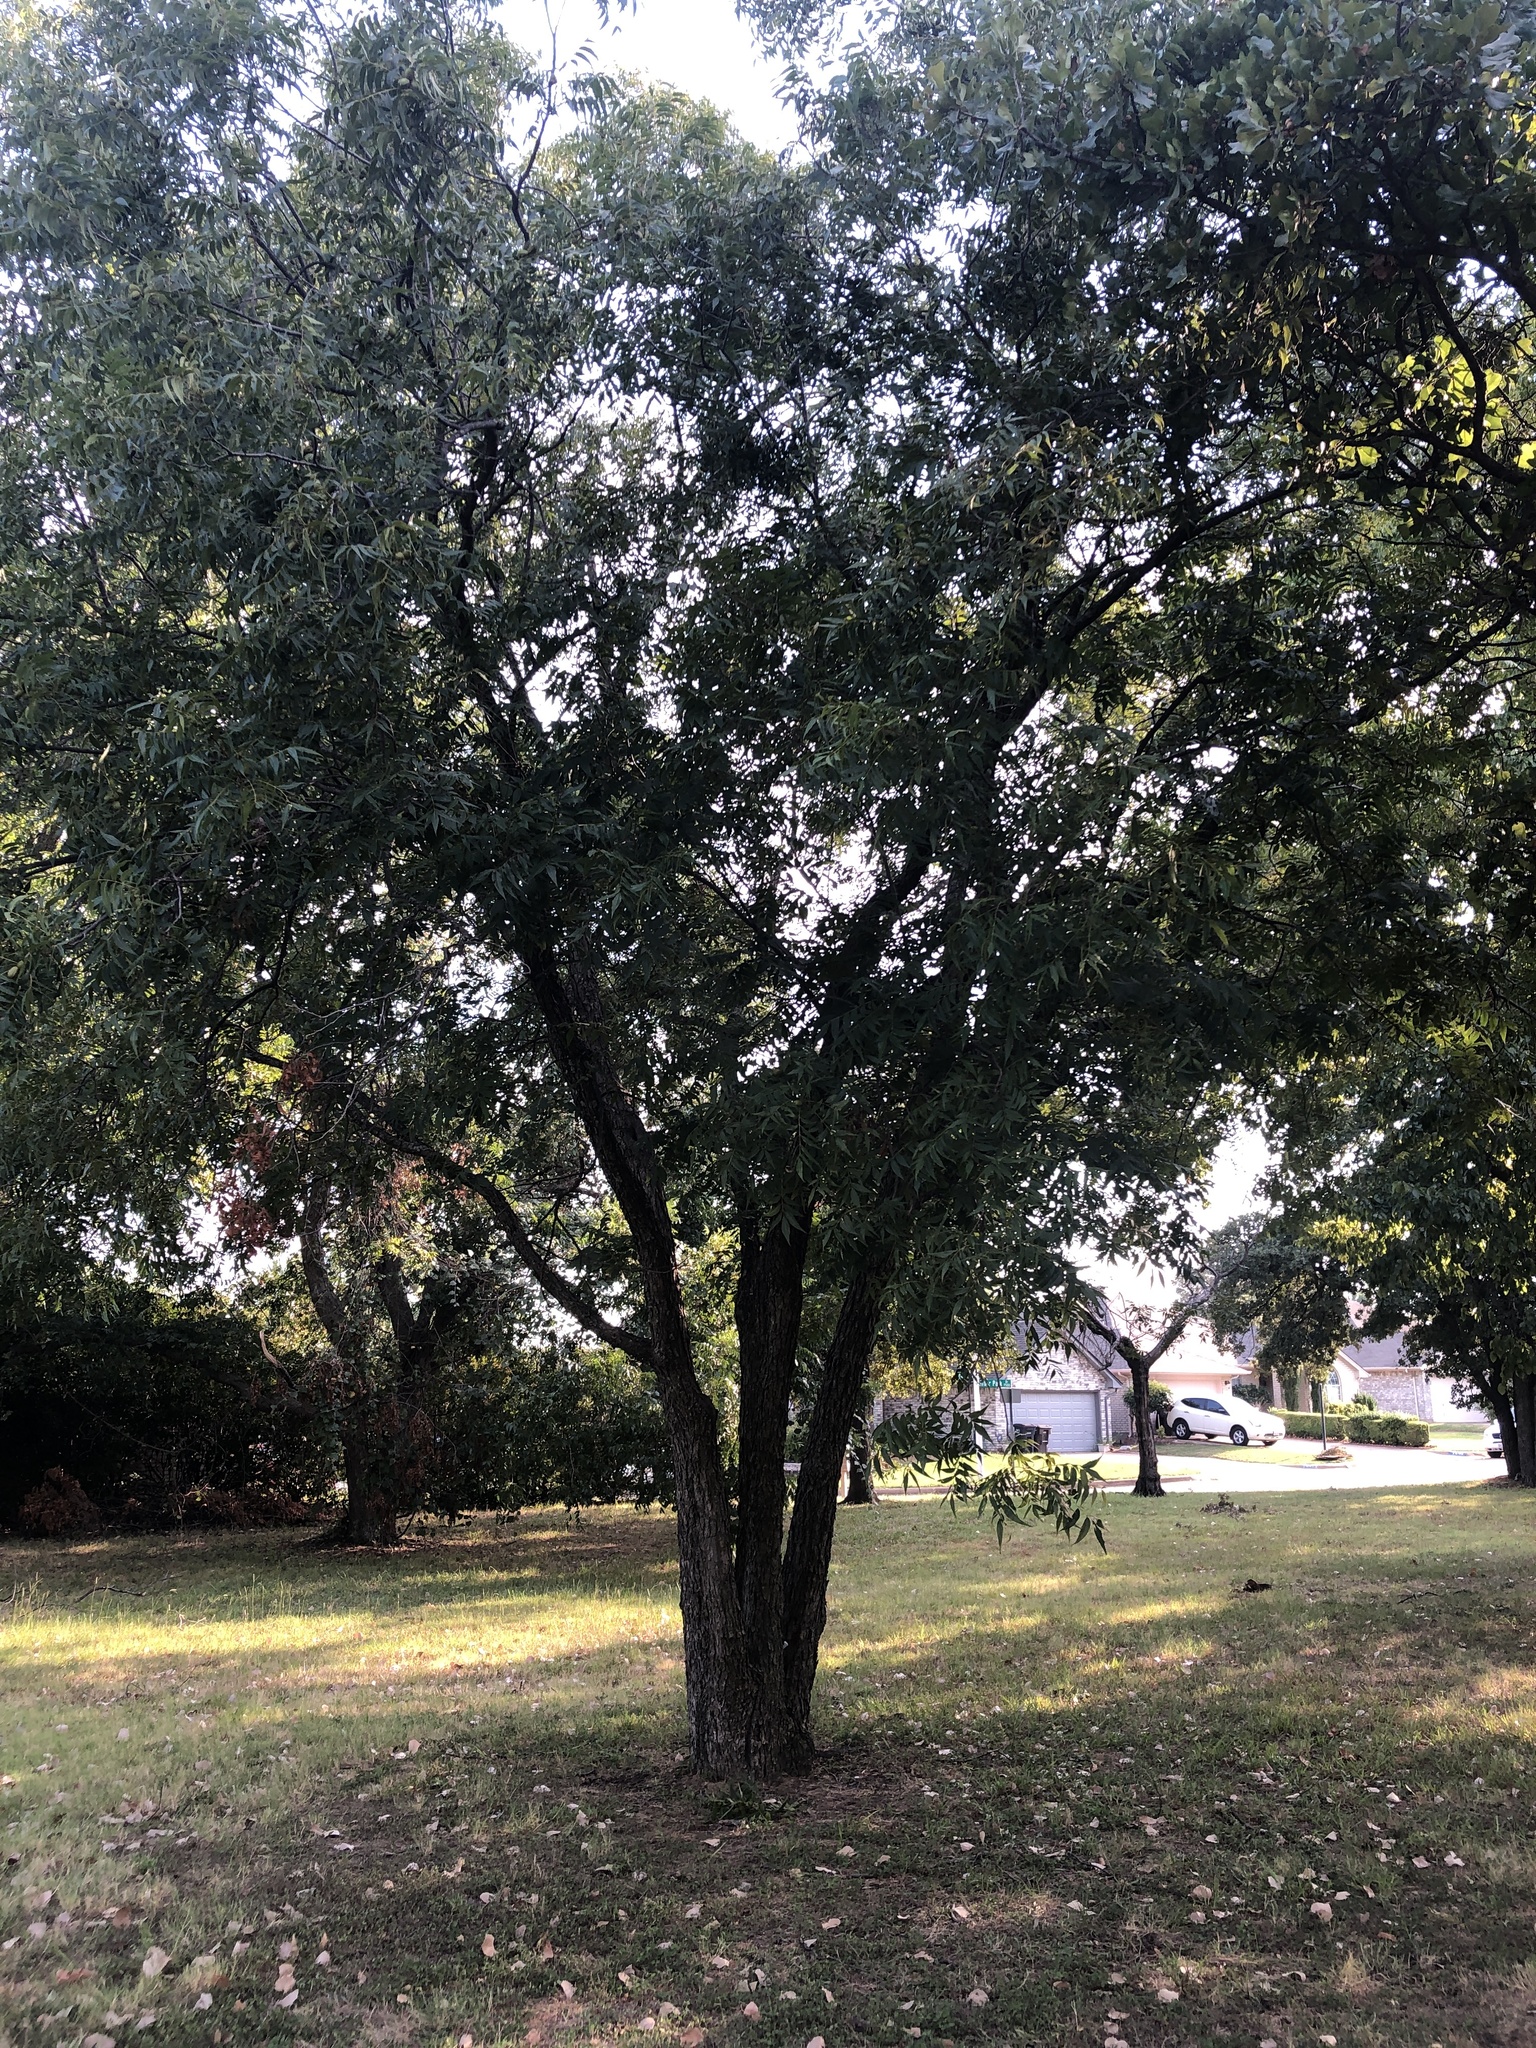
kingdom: Plantae
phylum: Tracheophyta
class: Magnoliopsida
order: Fagales
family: Juglandaceae
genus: Carya
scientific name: Carya illinoinensis
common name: Pecan
